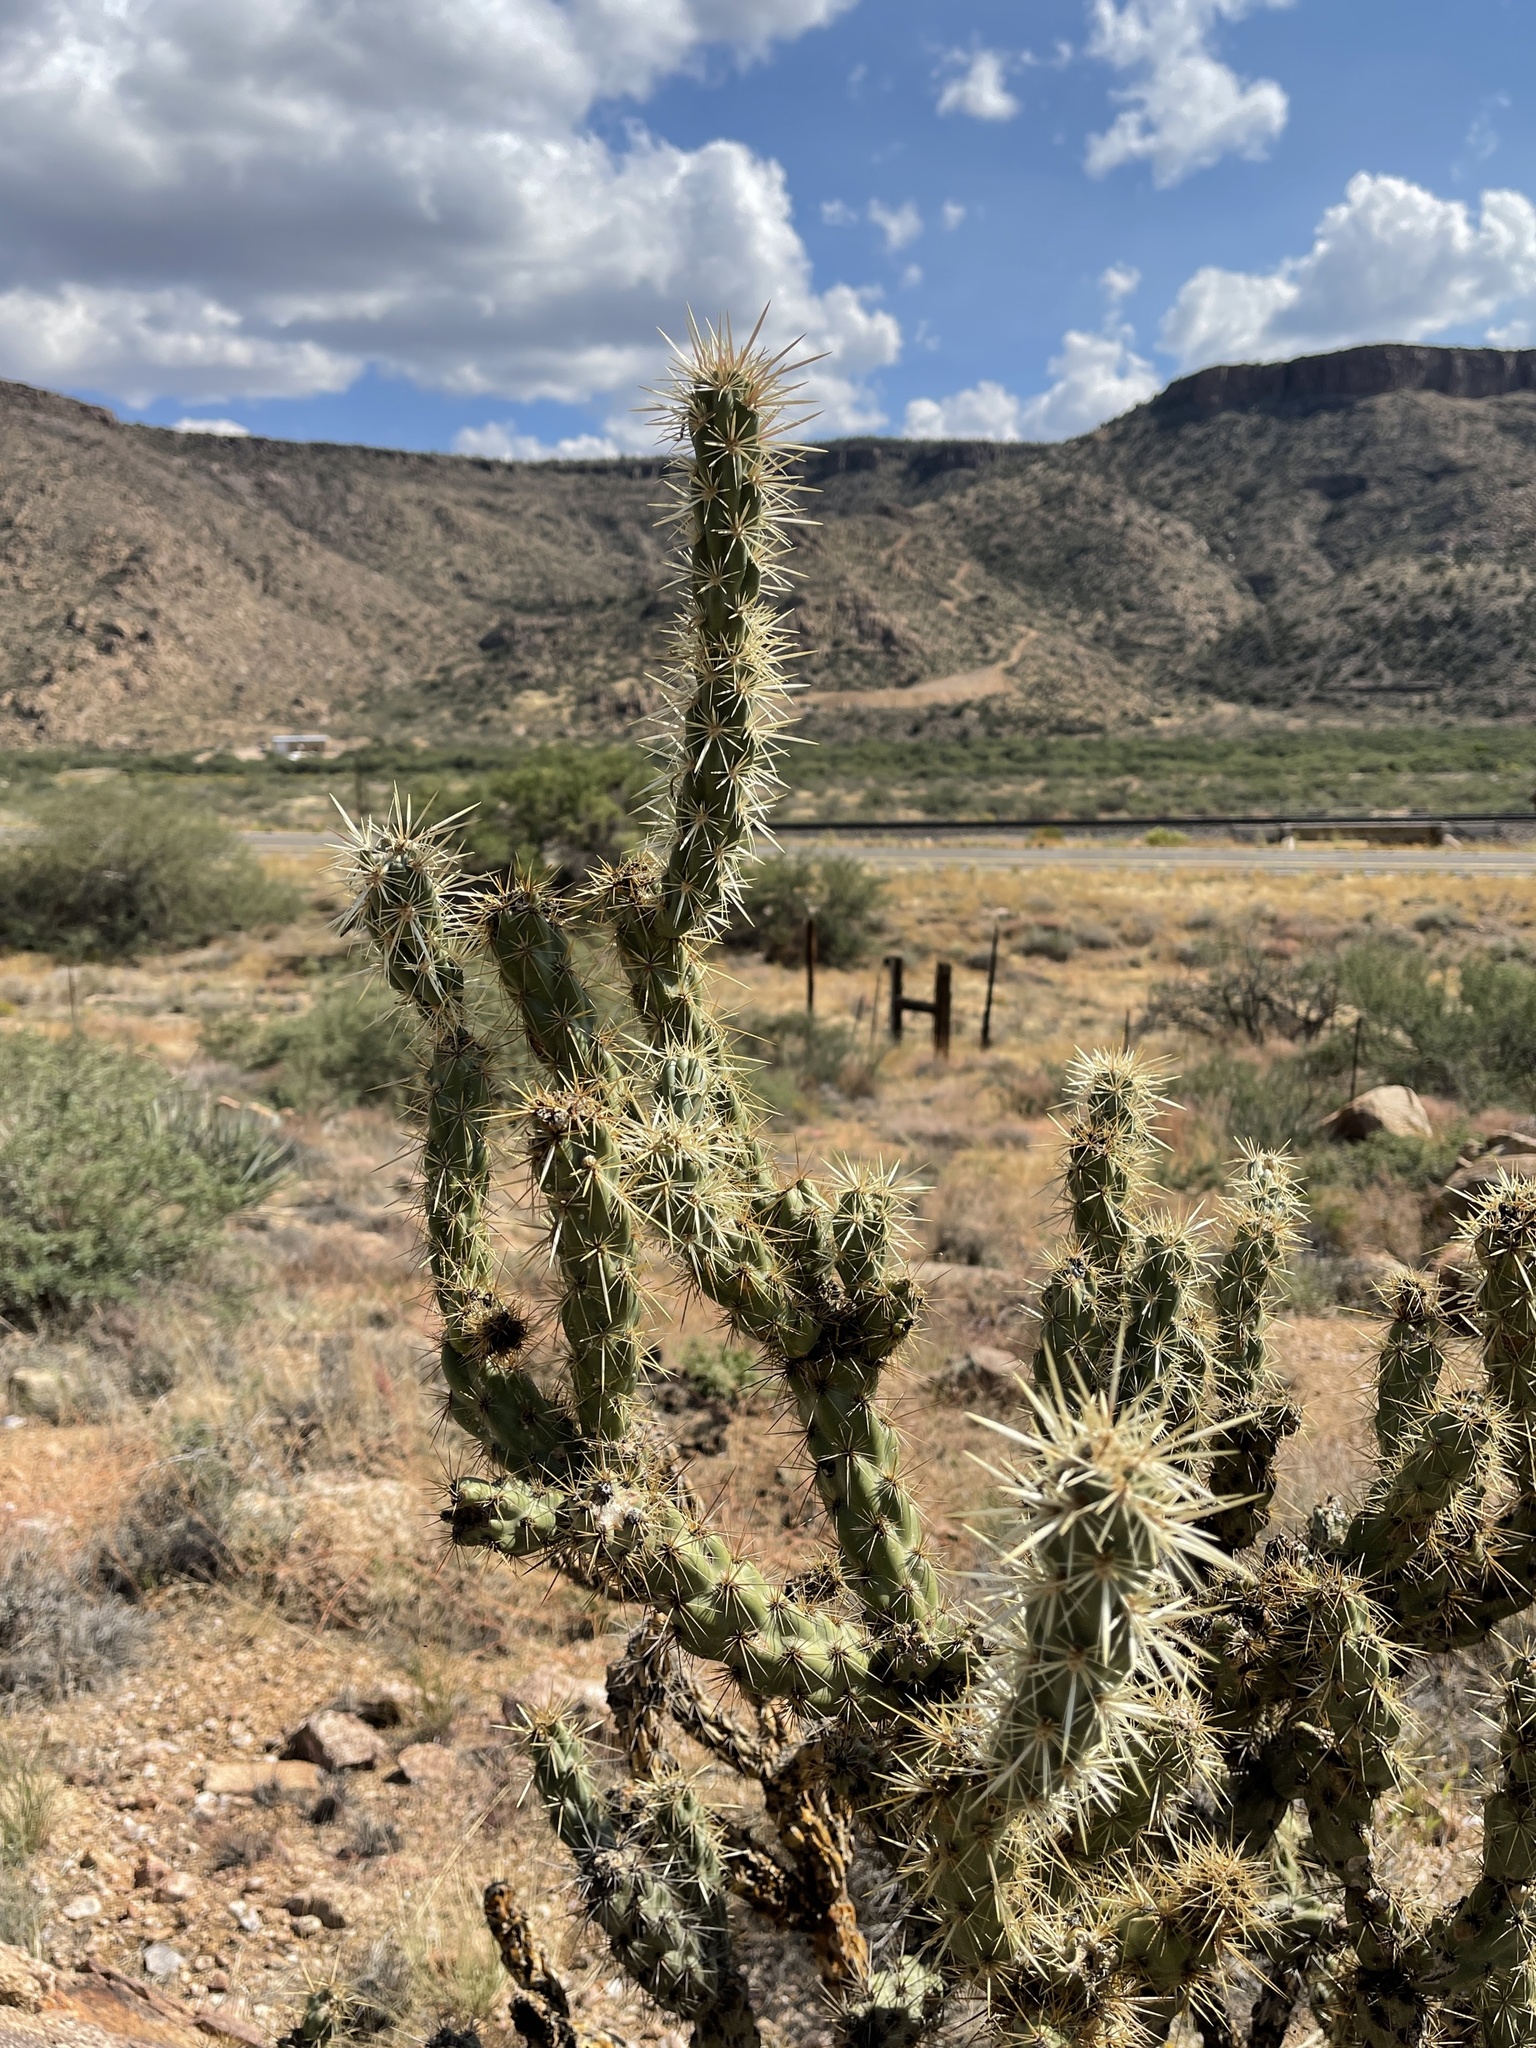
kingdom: Plantae
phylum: Tracheophyta
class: Magnoliopsida
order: Caryophyllales
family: Cactaceae
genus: Cylindropuntia
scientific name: Cylindropuntia acanthocarpa
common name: Buckhorn cholla
